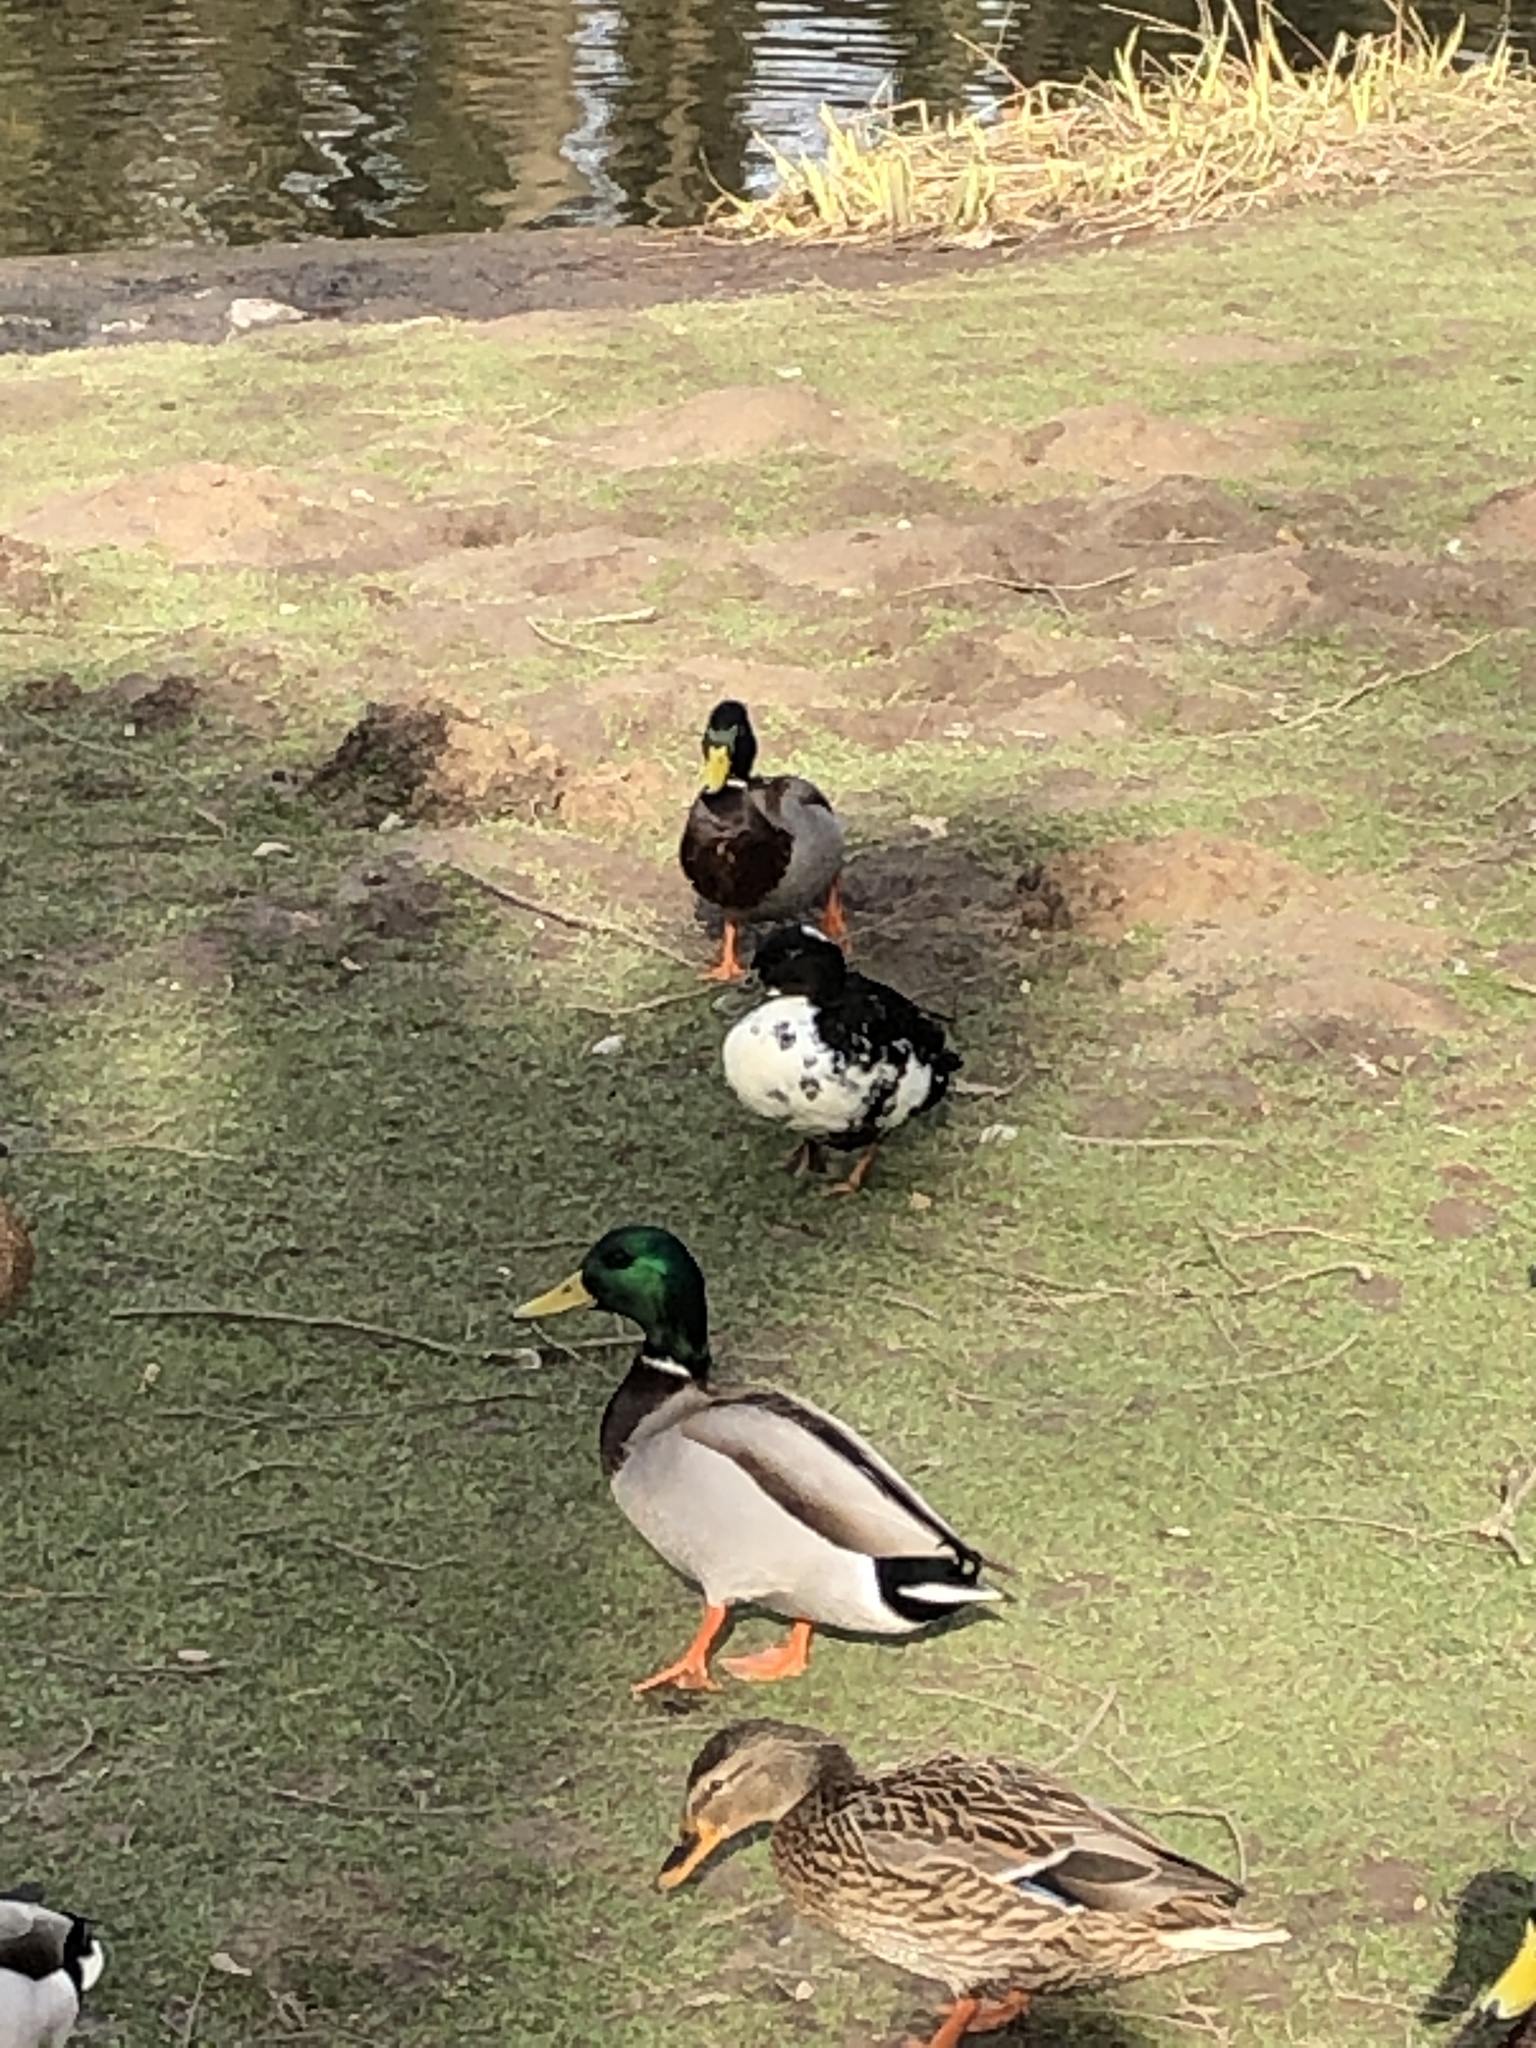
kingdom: Animalia
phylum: Chordata
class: Aves
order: Anseriformes
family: Anatidae
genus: Anas
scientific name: Anas platyrhynchos
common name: Mallard
